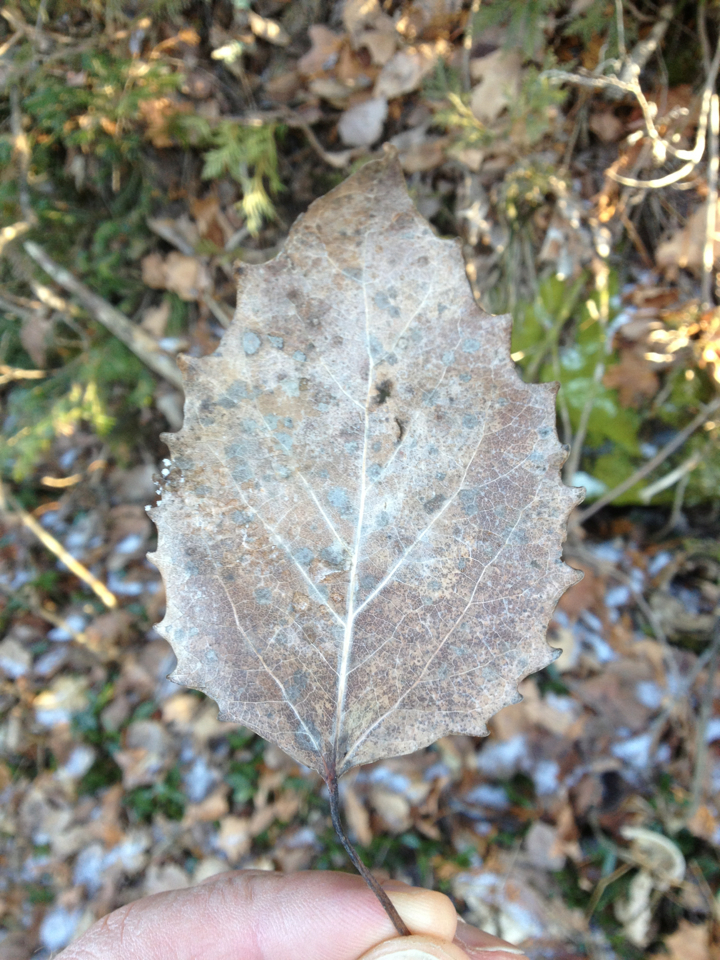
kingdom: Plantae
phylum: Tracheophyta
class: Magnoliopsida
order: Malpighiales
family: Salicaceae
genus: Populus
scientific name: Populus grandidentata
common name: Bigtooth aspen
